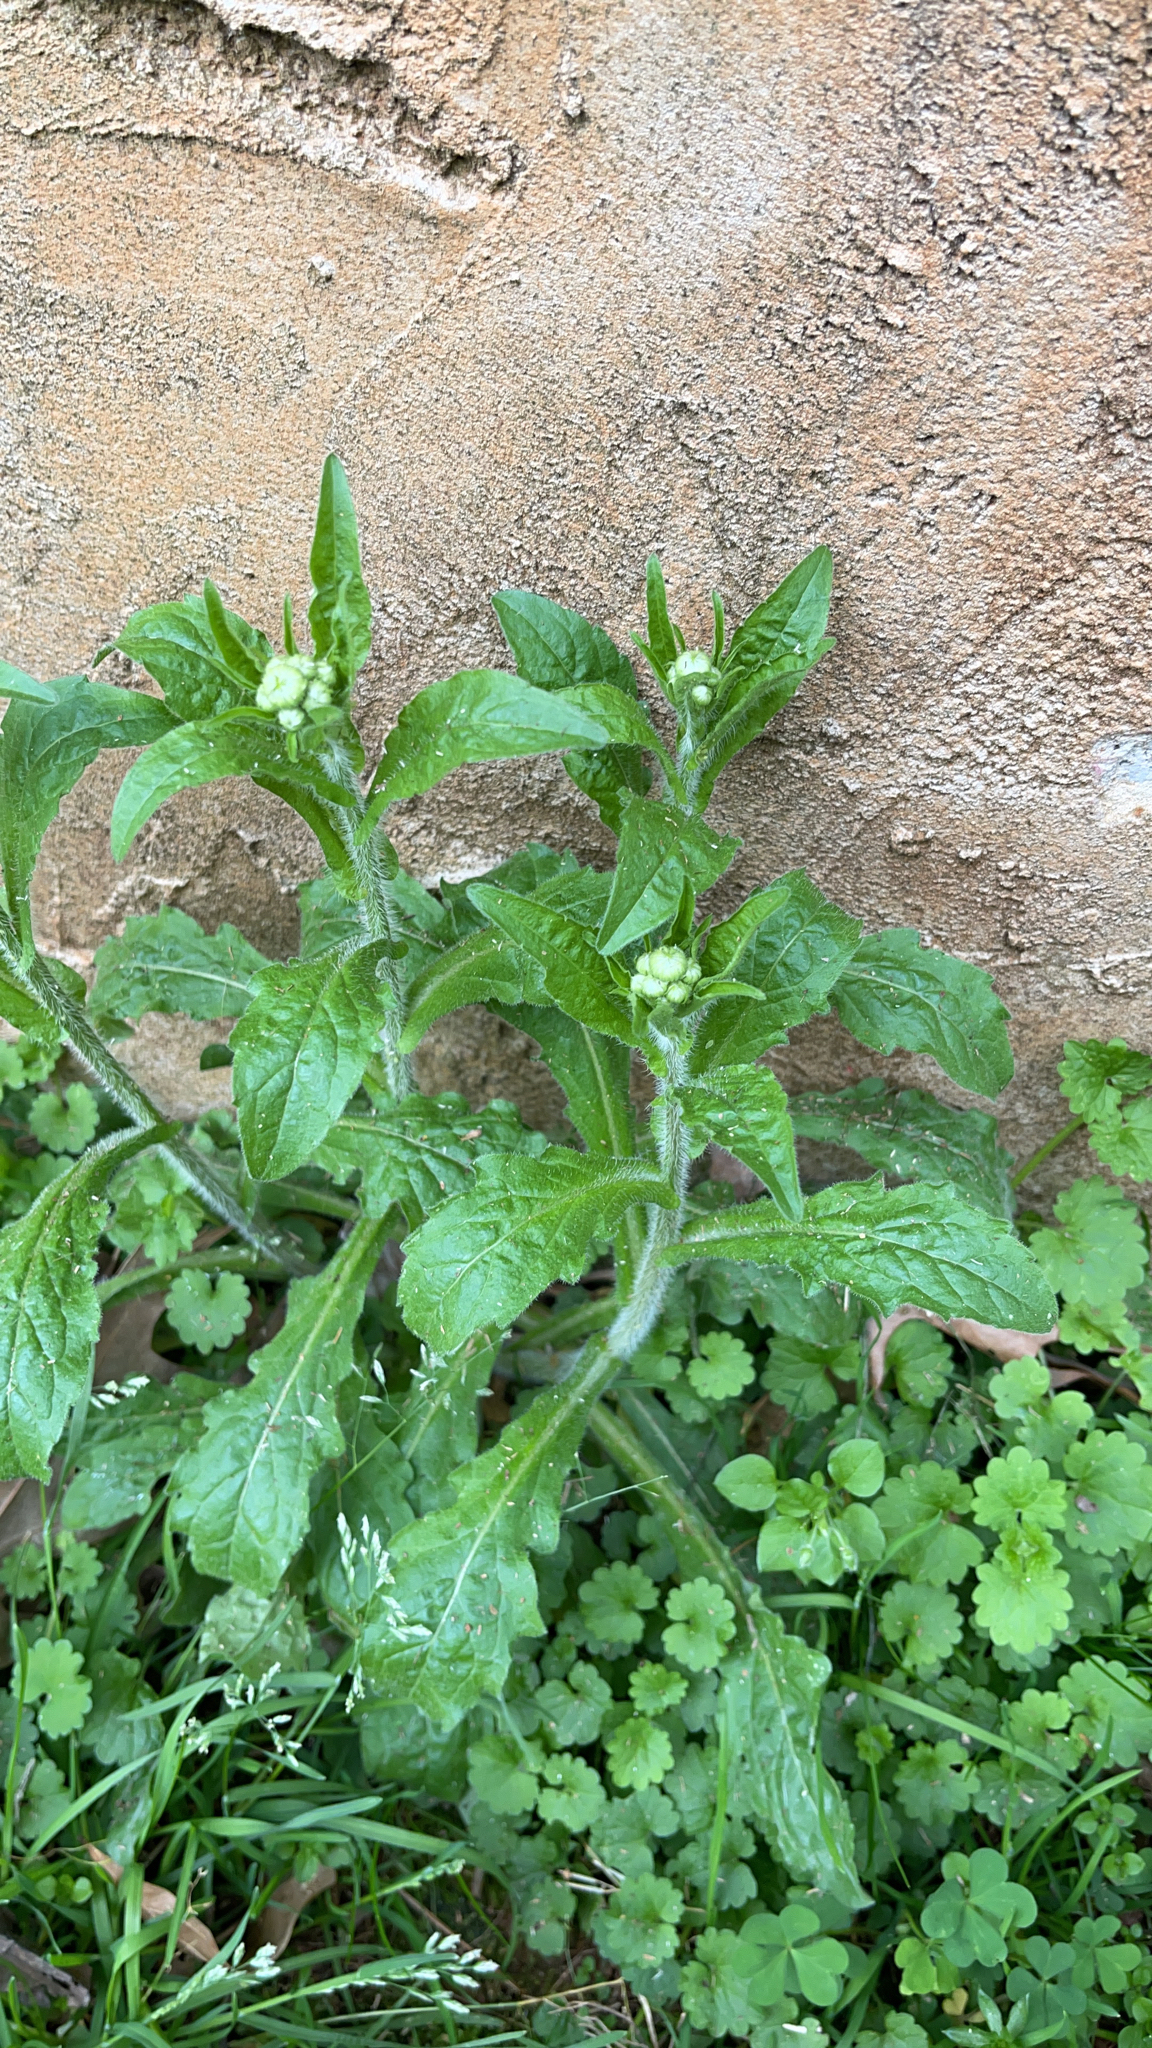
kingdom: Plantae
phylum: Tracheophyta
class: Magnoliopsida
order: Asterales
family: Asteraceae
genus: Erigeron
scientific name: Erigeron philadelphicus
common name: Robin's-plantain
